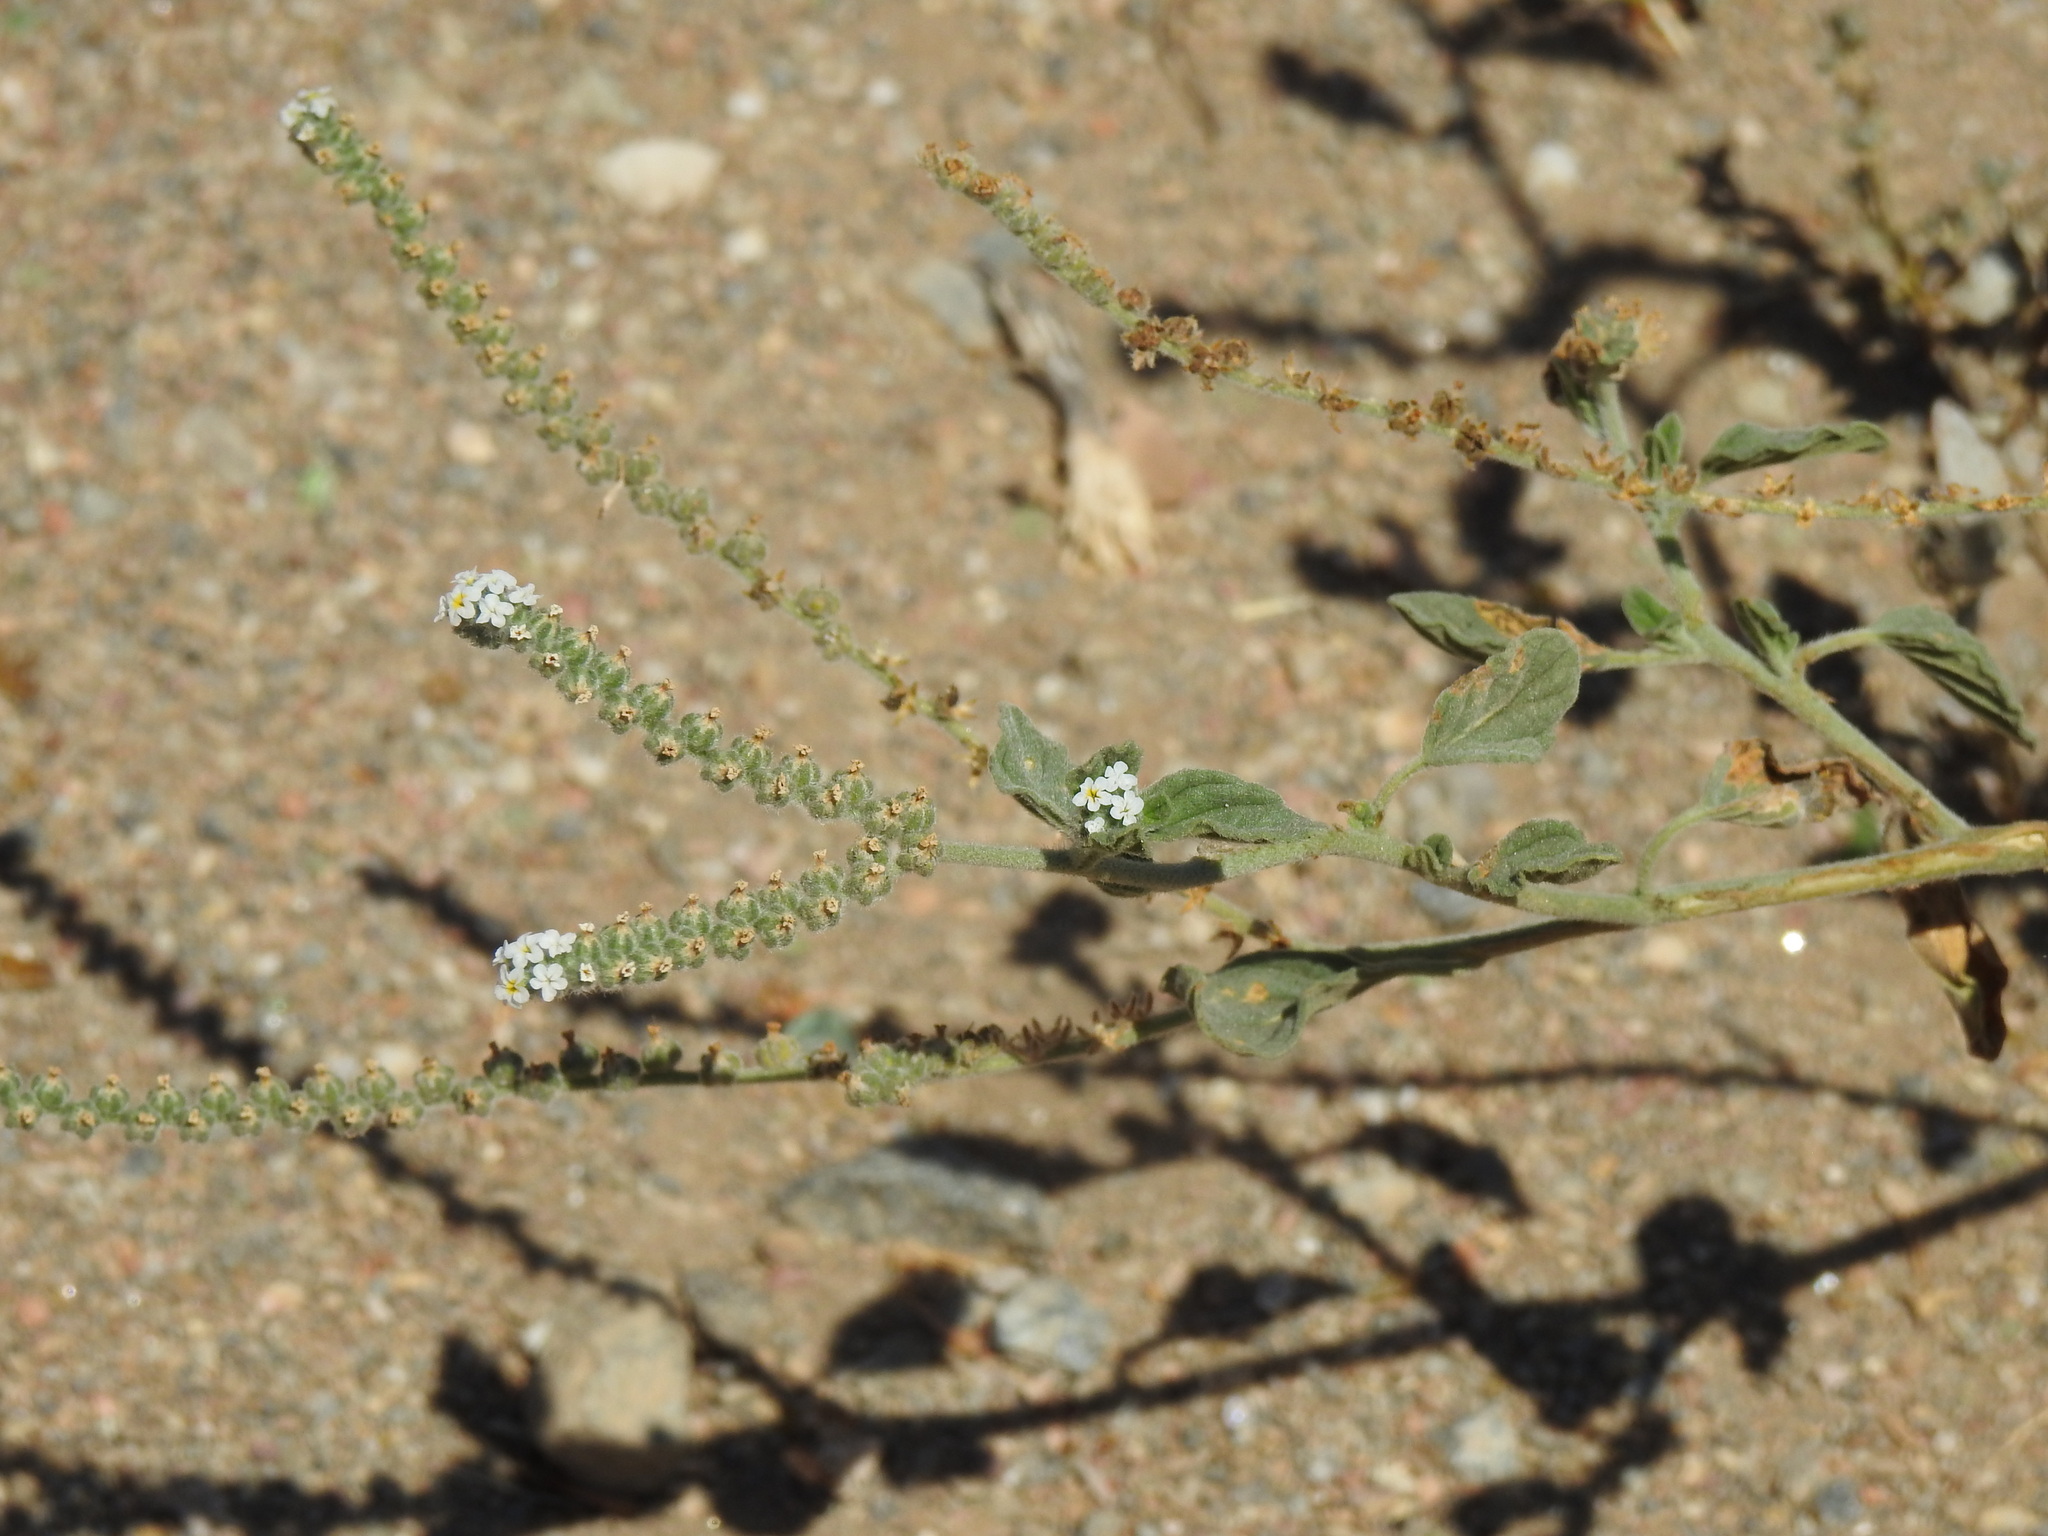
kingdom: Plantae
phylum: Tracheophyta
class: Magnoliopsida
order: Boraginales
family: Heliotropiaceae
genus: Heliotropium
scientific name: Heliotropium europaeum
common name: European heliotrope
